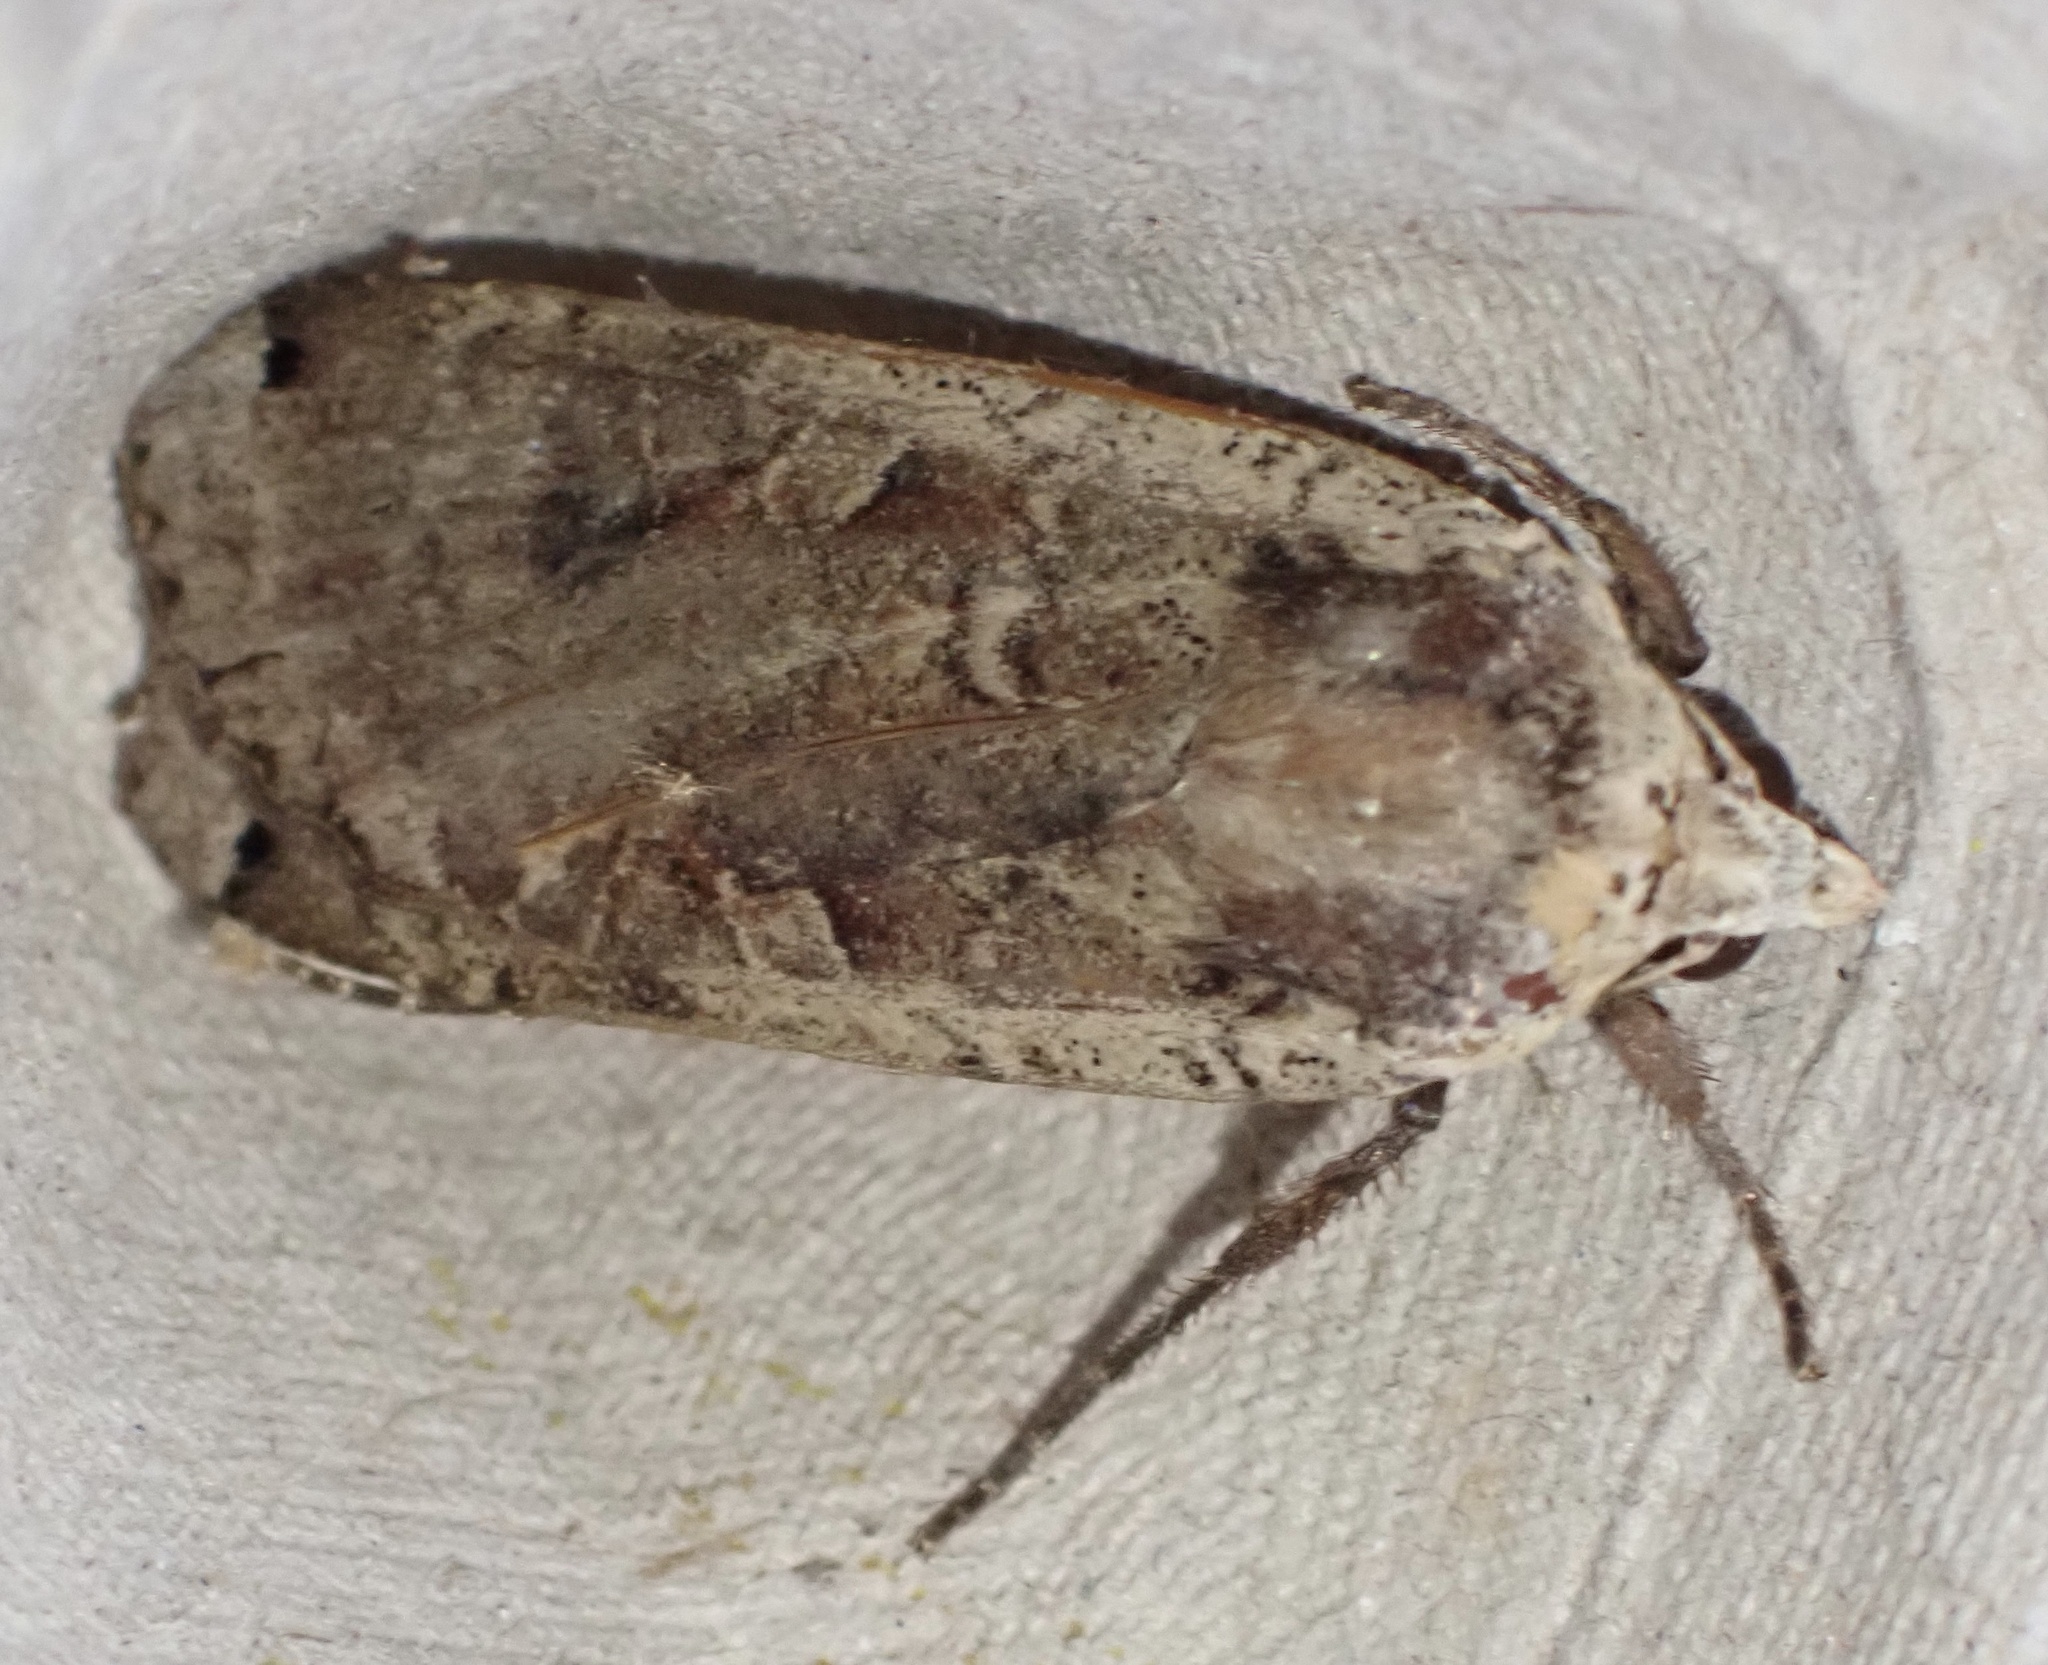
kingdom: Animalia
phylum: Arthropoda
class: Insecta
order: Lepidoptera
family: Noctuidae
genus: Noctua
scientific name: Noctua pronuba
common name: Large yellow underwing
